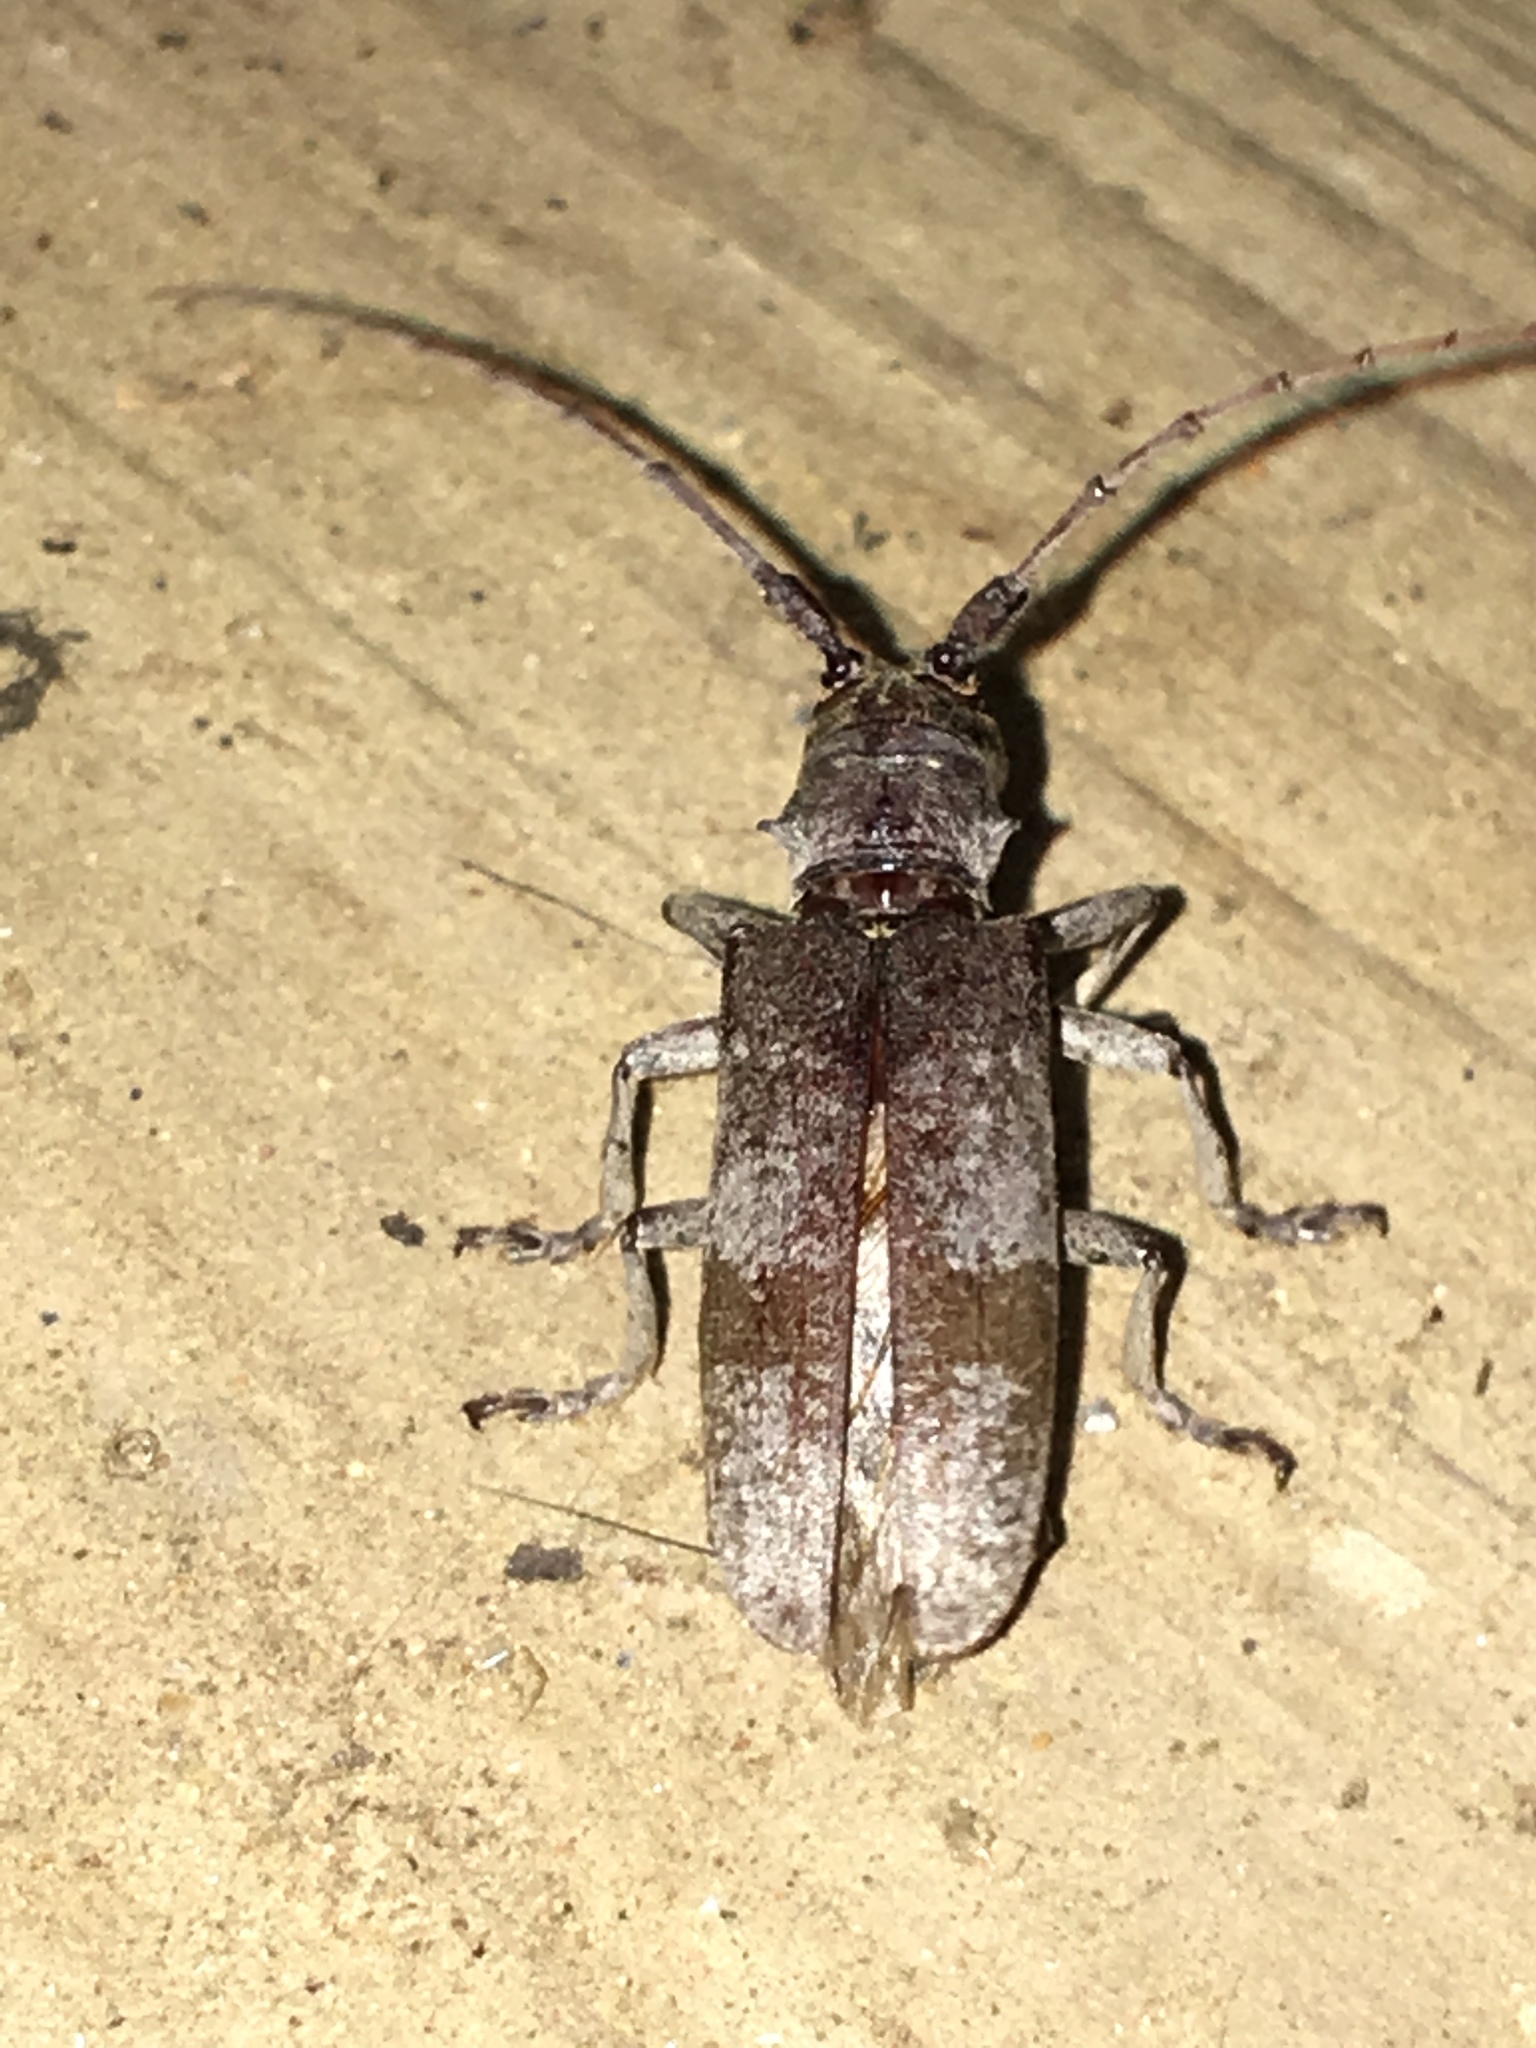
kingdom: Animalia
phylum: Arthropoda
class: Insecta
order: Coleoptera
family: Cerambycidae
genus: Goes
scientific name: Goes pulverulentus
